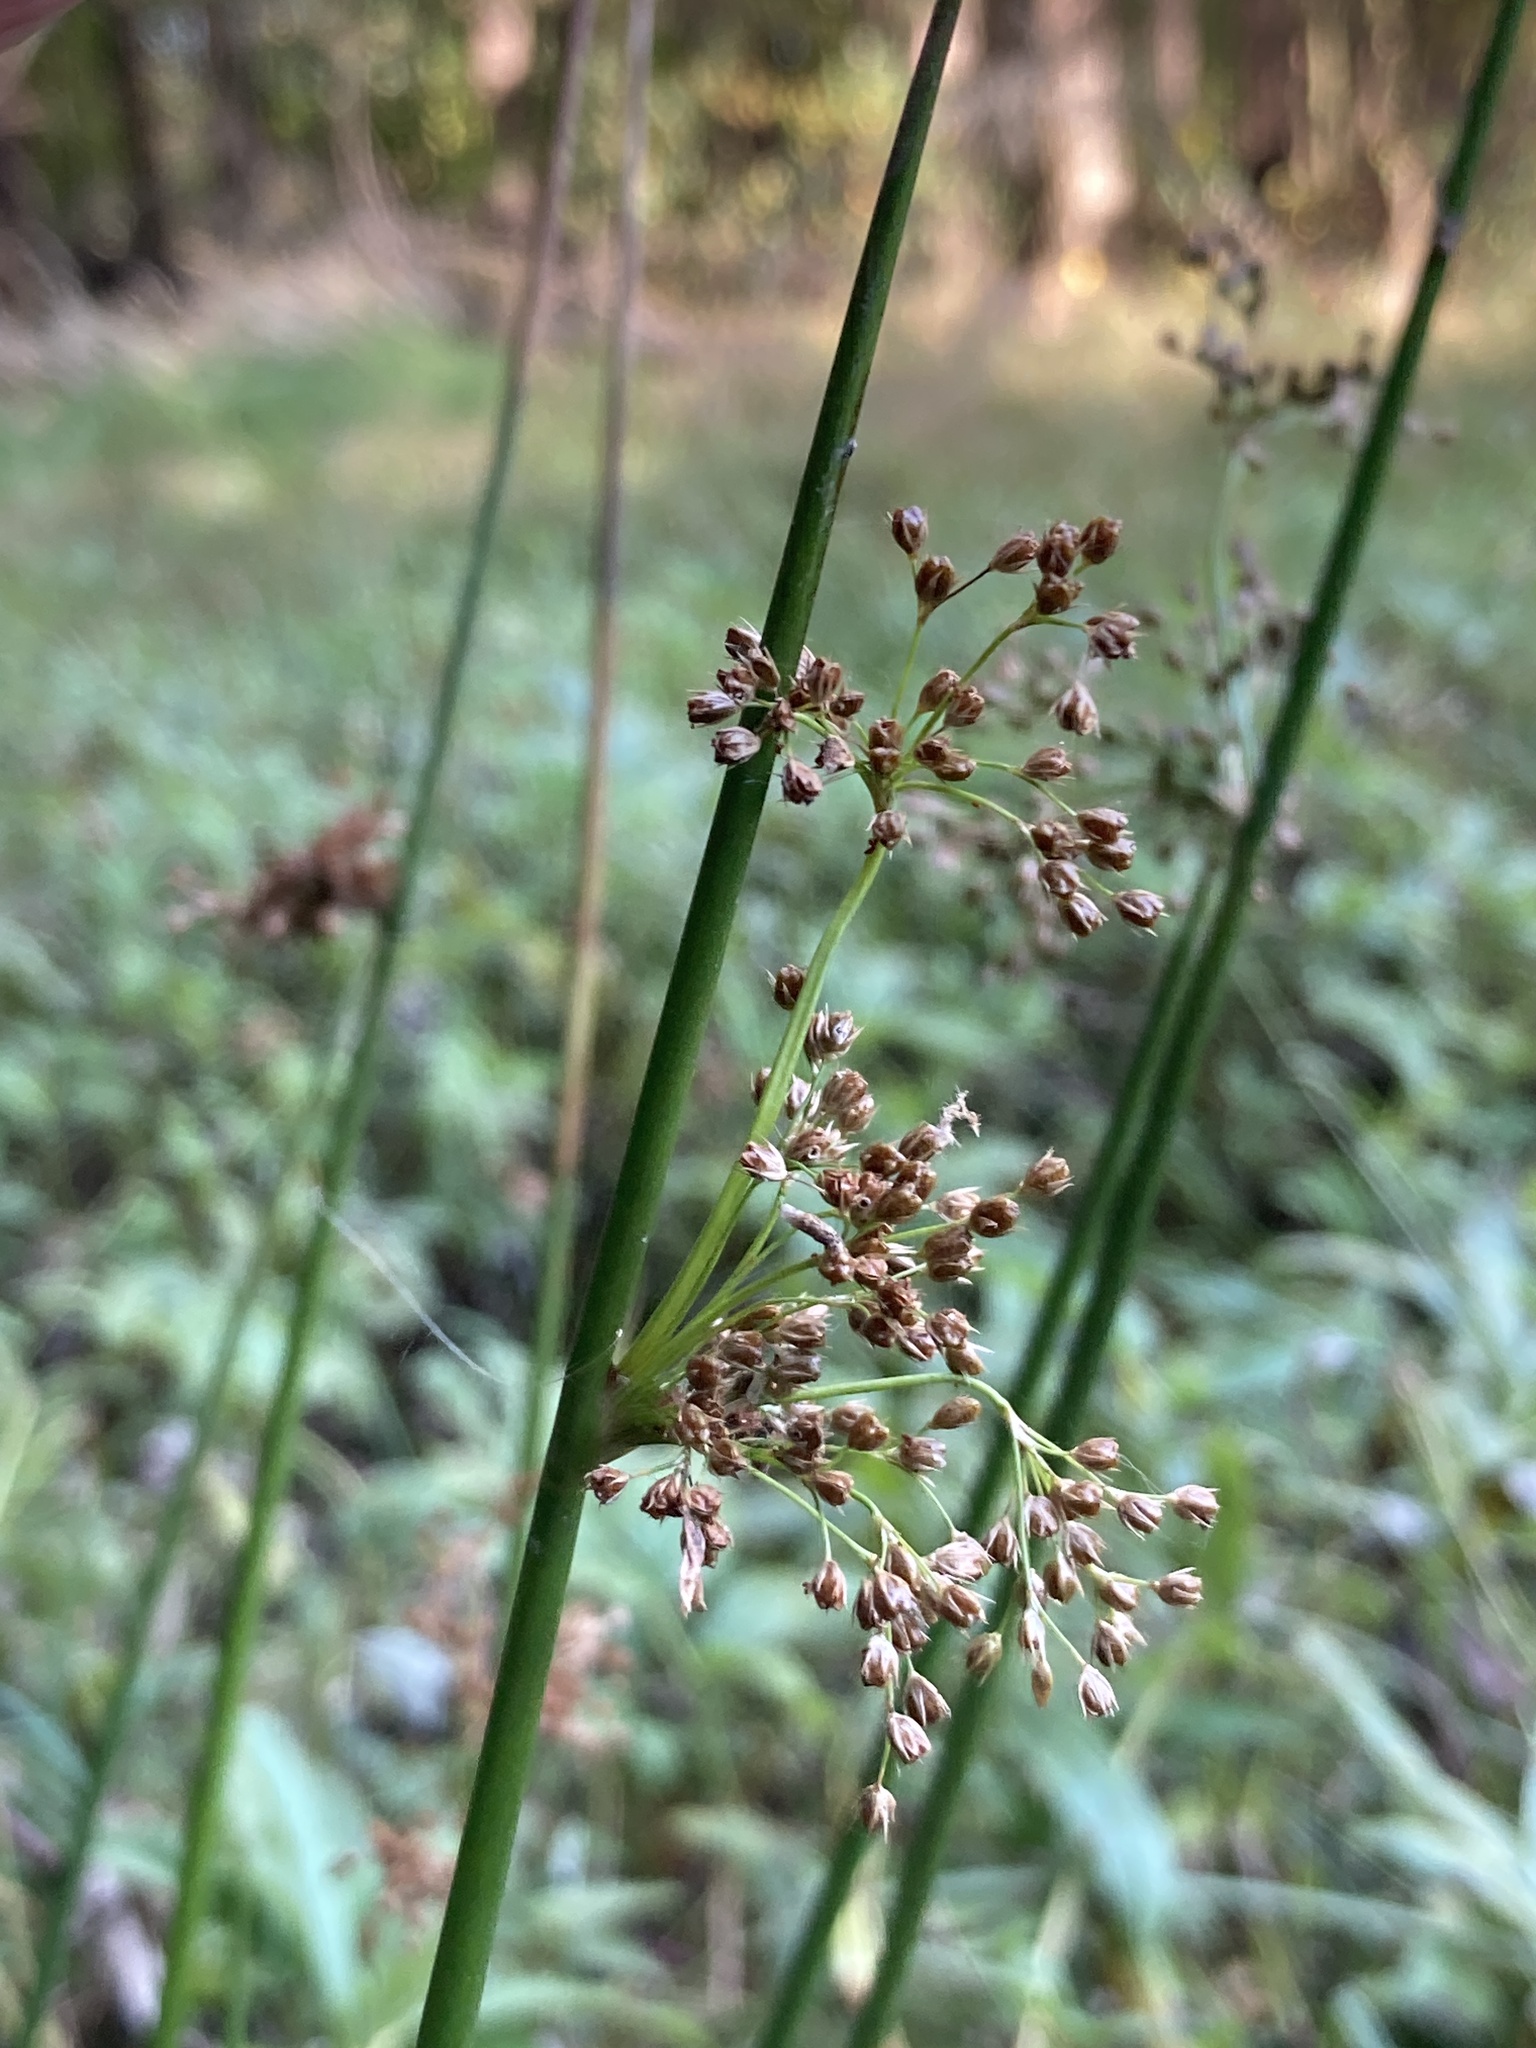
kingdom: Plantae
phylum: Tracheophyta
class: Liliopsida
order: Poales
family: Juncaceae
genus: Juncus
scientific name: Juncus effusus
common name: Soft rush
